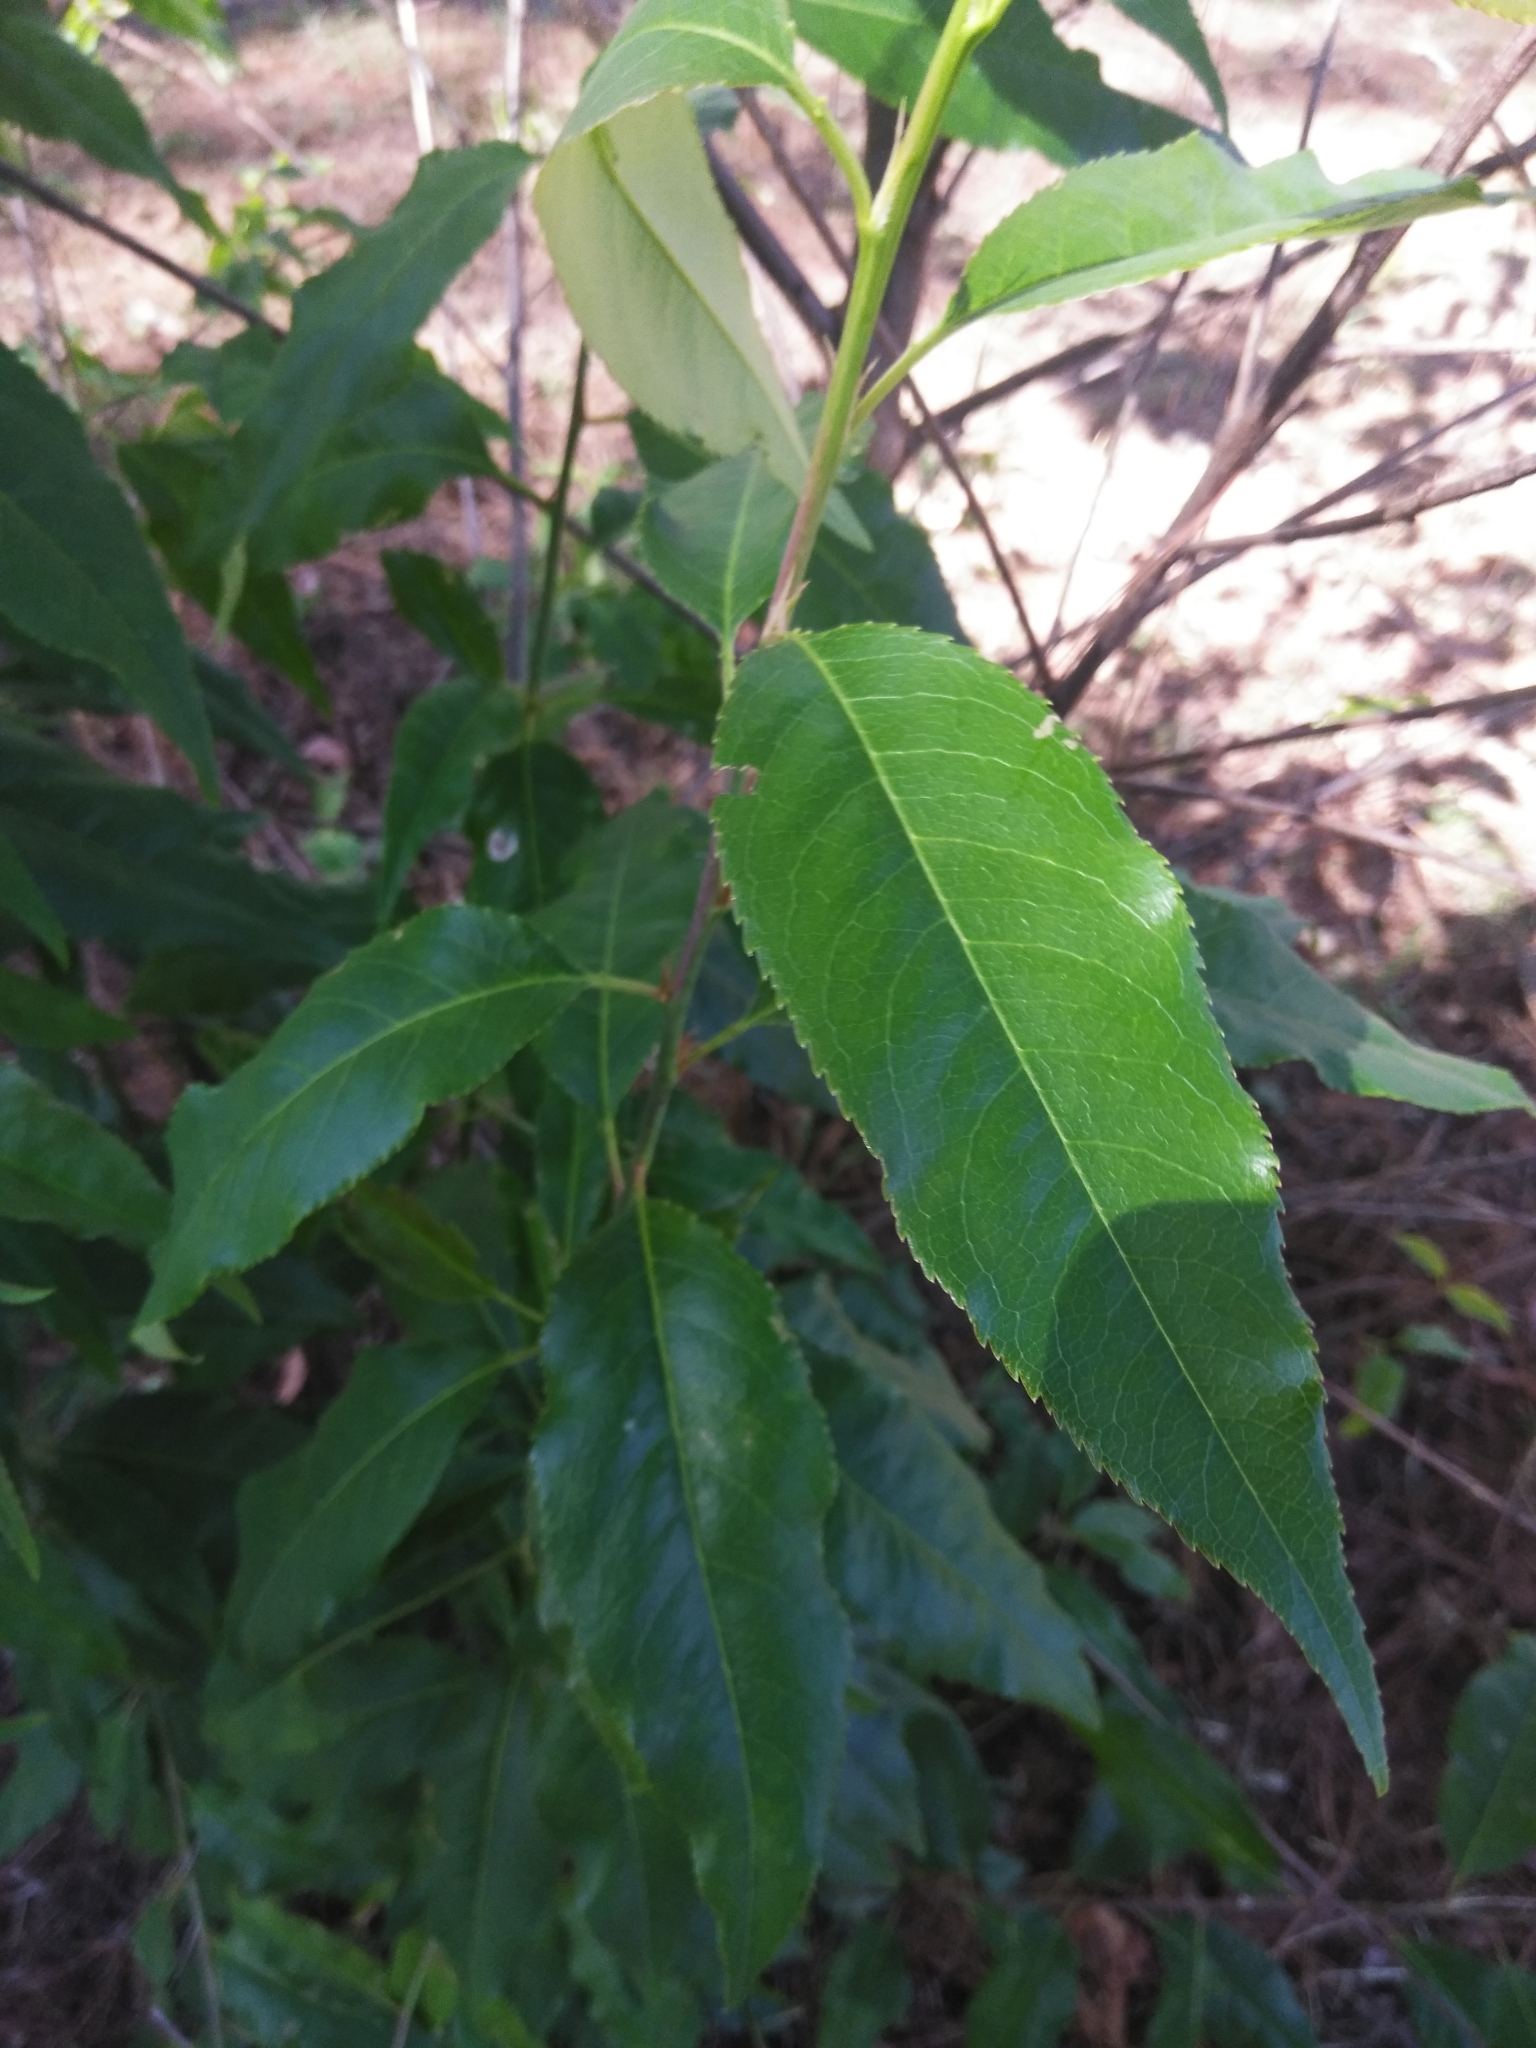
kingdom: Plantae
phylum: Tracheophyta
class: Magnoliopsida
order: Rosales
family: Rosaceae
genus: Prunus
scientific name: Prunus serotina
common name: Black cherry
